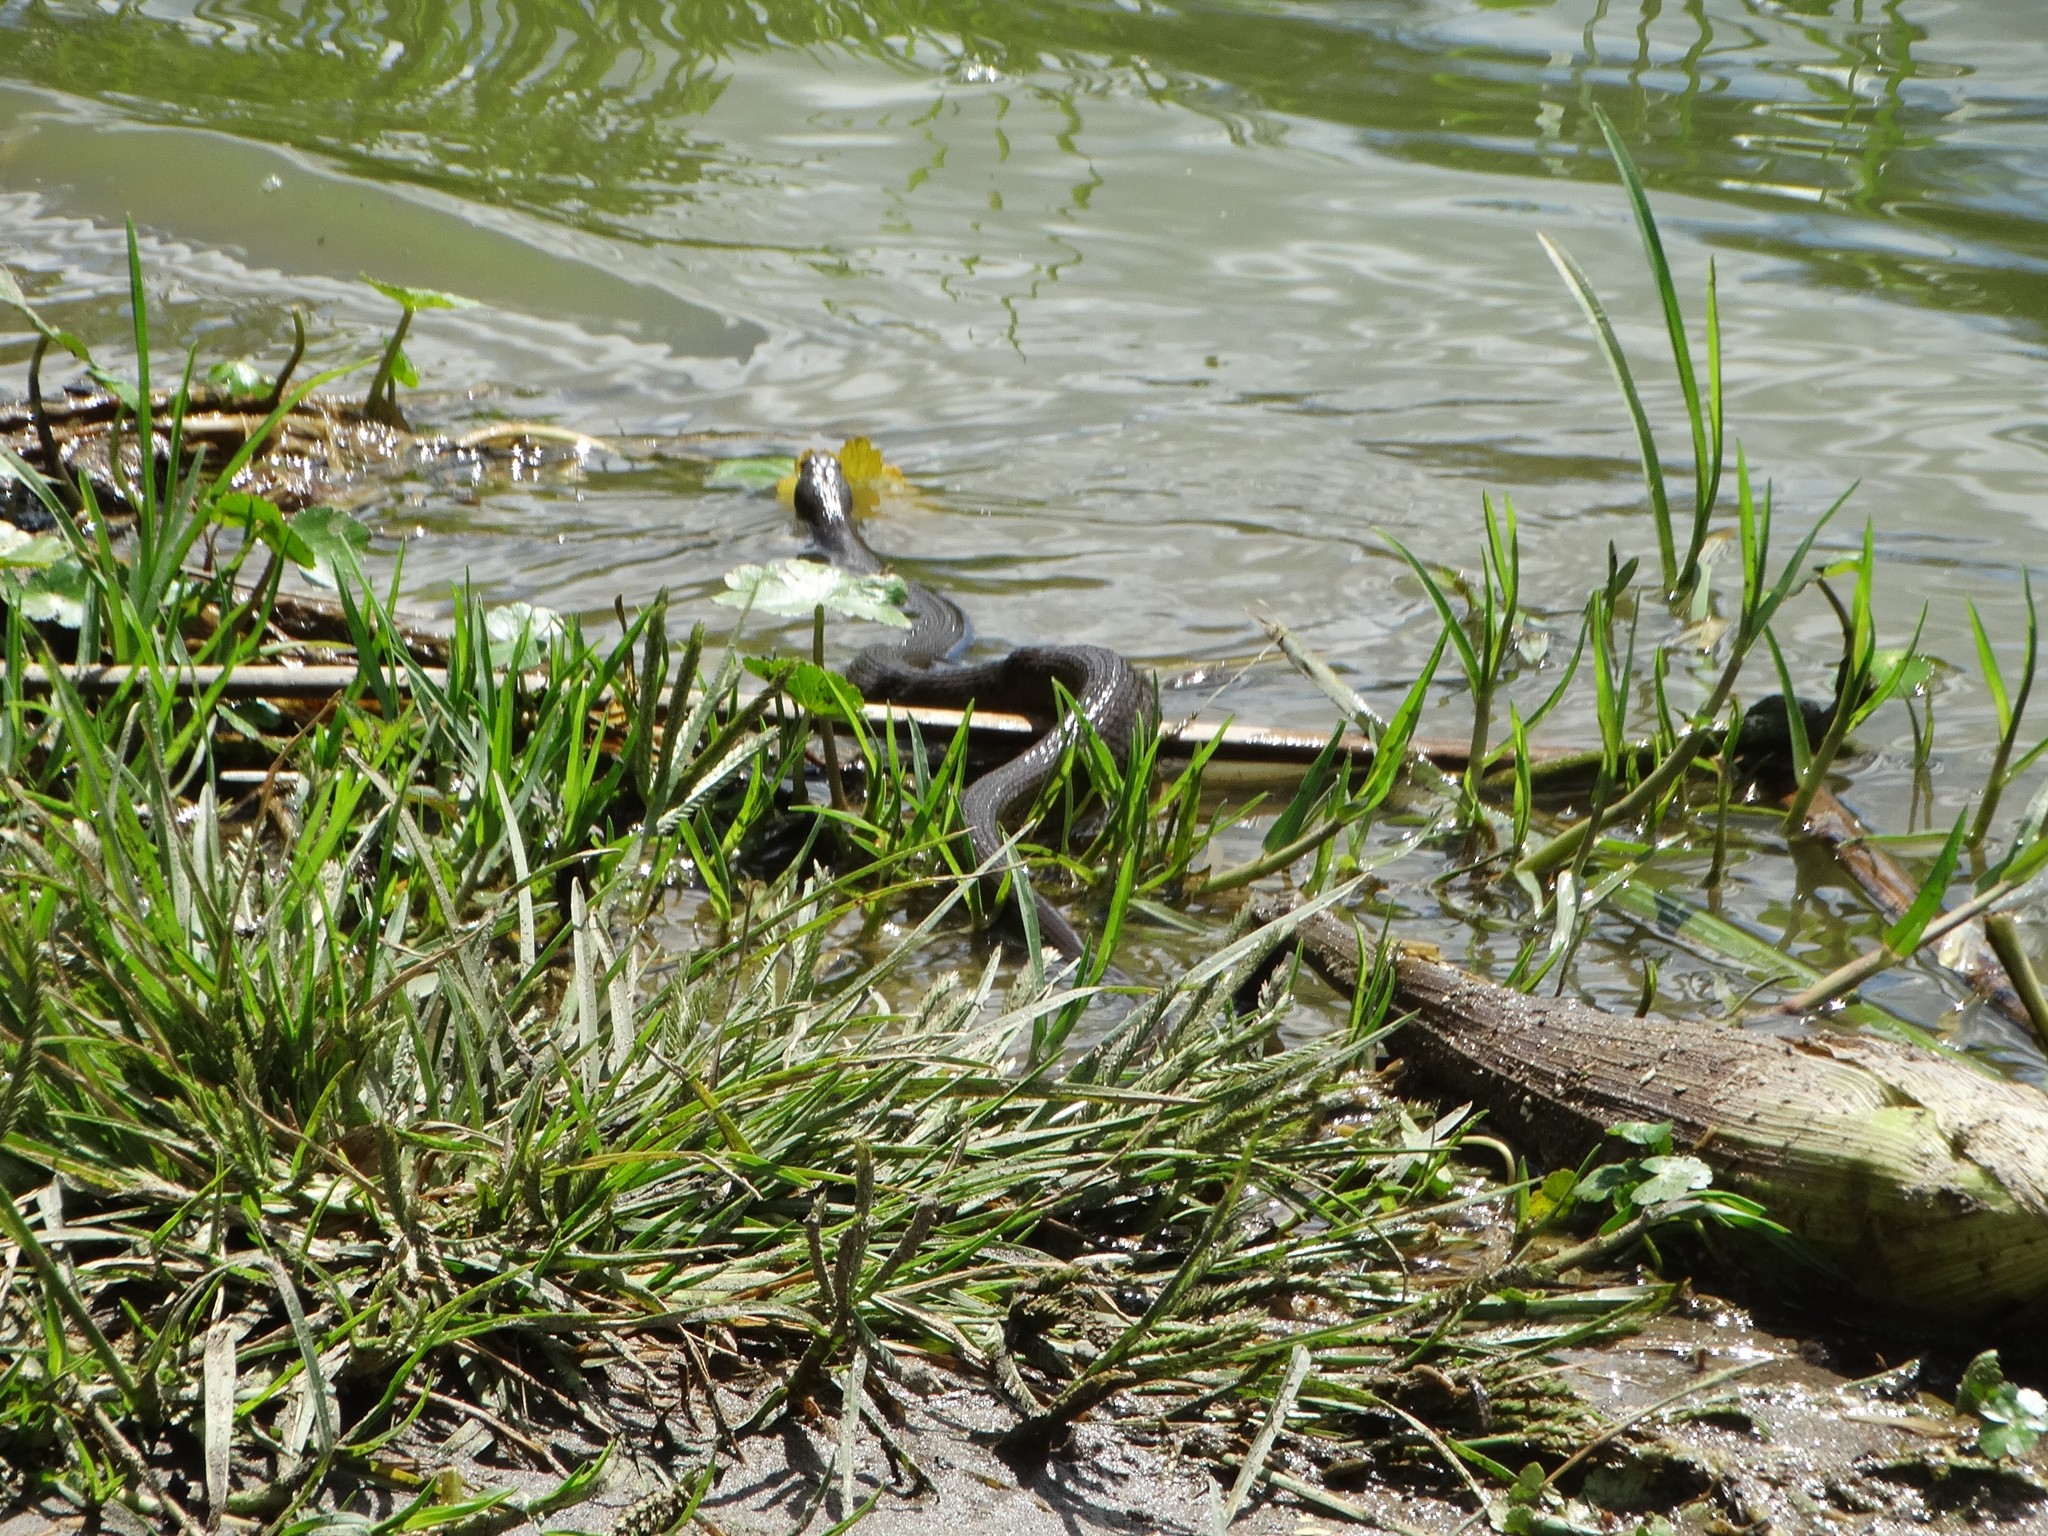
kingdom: Animalia
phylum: Chordata
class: Squamata
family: Colubridae
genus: Thamnophis
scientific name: Thamnophis melanogaster
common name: Blackbelly garter snake
